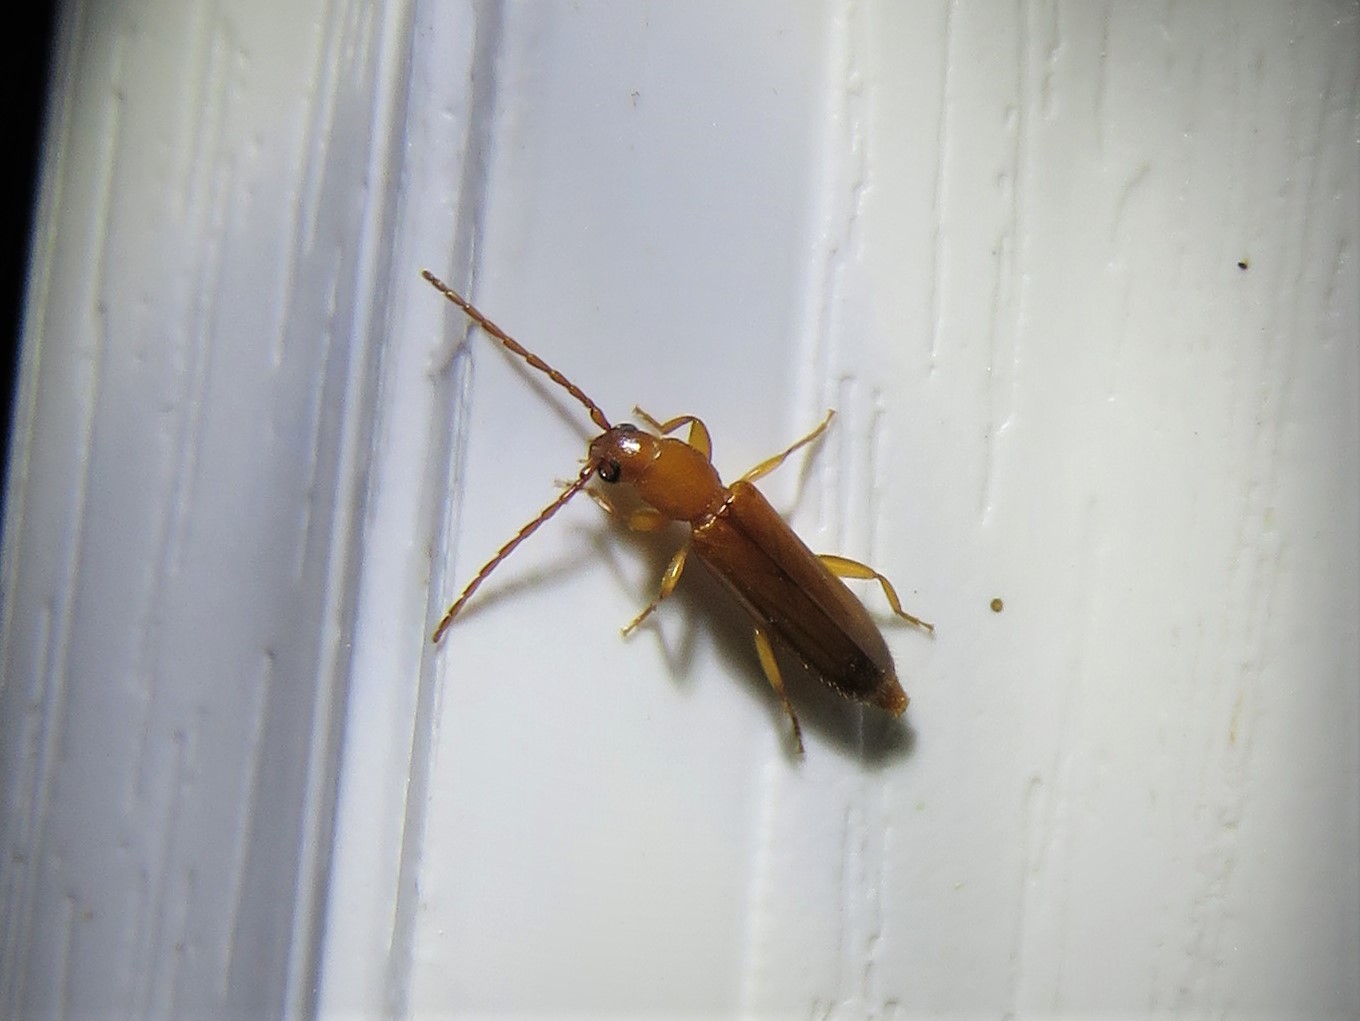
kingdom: Animalia
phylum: Arthropoda
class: Insecta
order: Coleoptera
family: Cerambycidae
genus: Smodicum
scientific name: Smodicum cucujiforme
